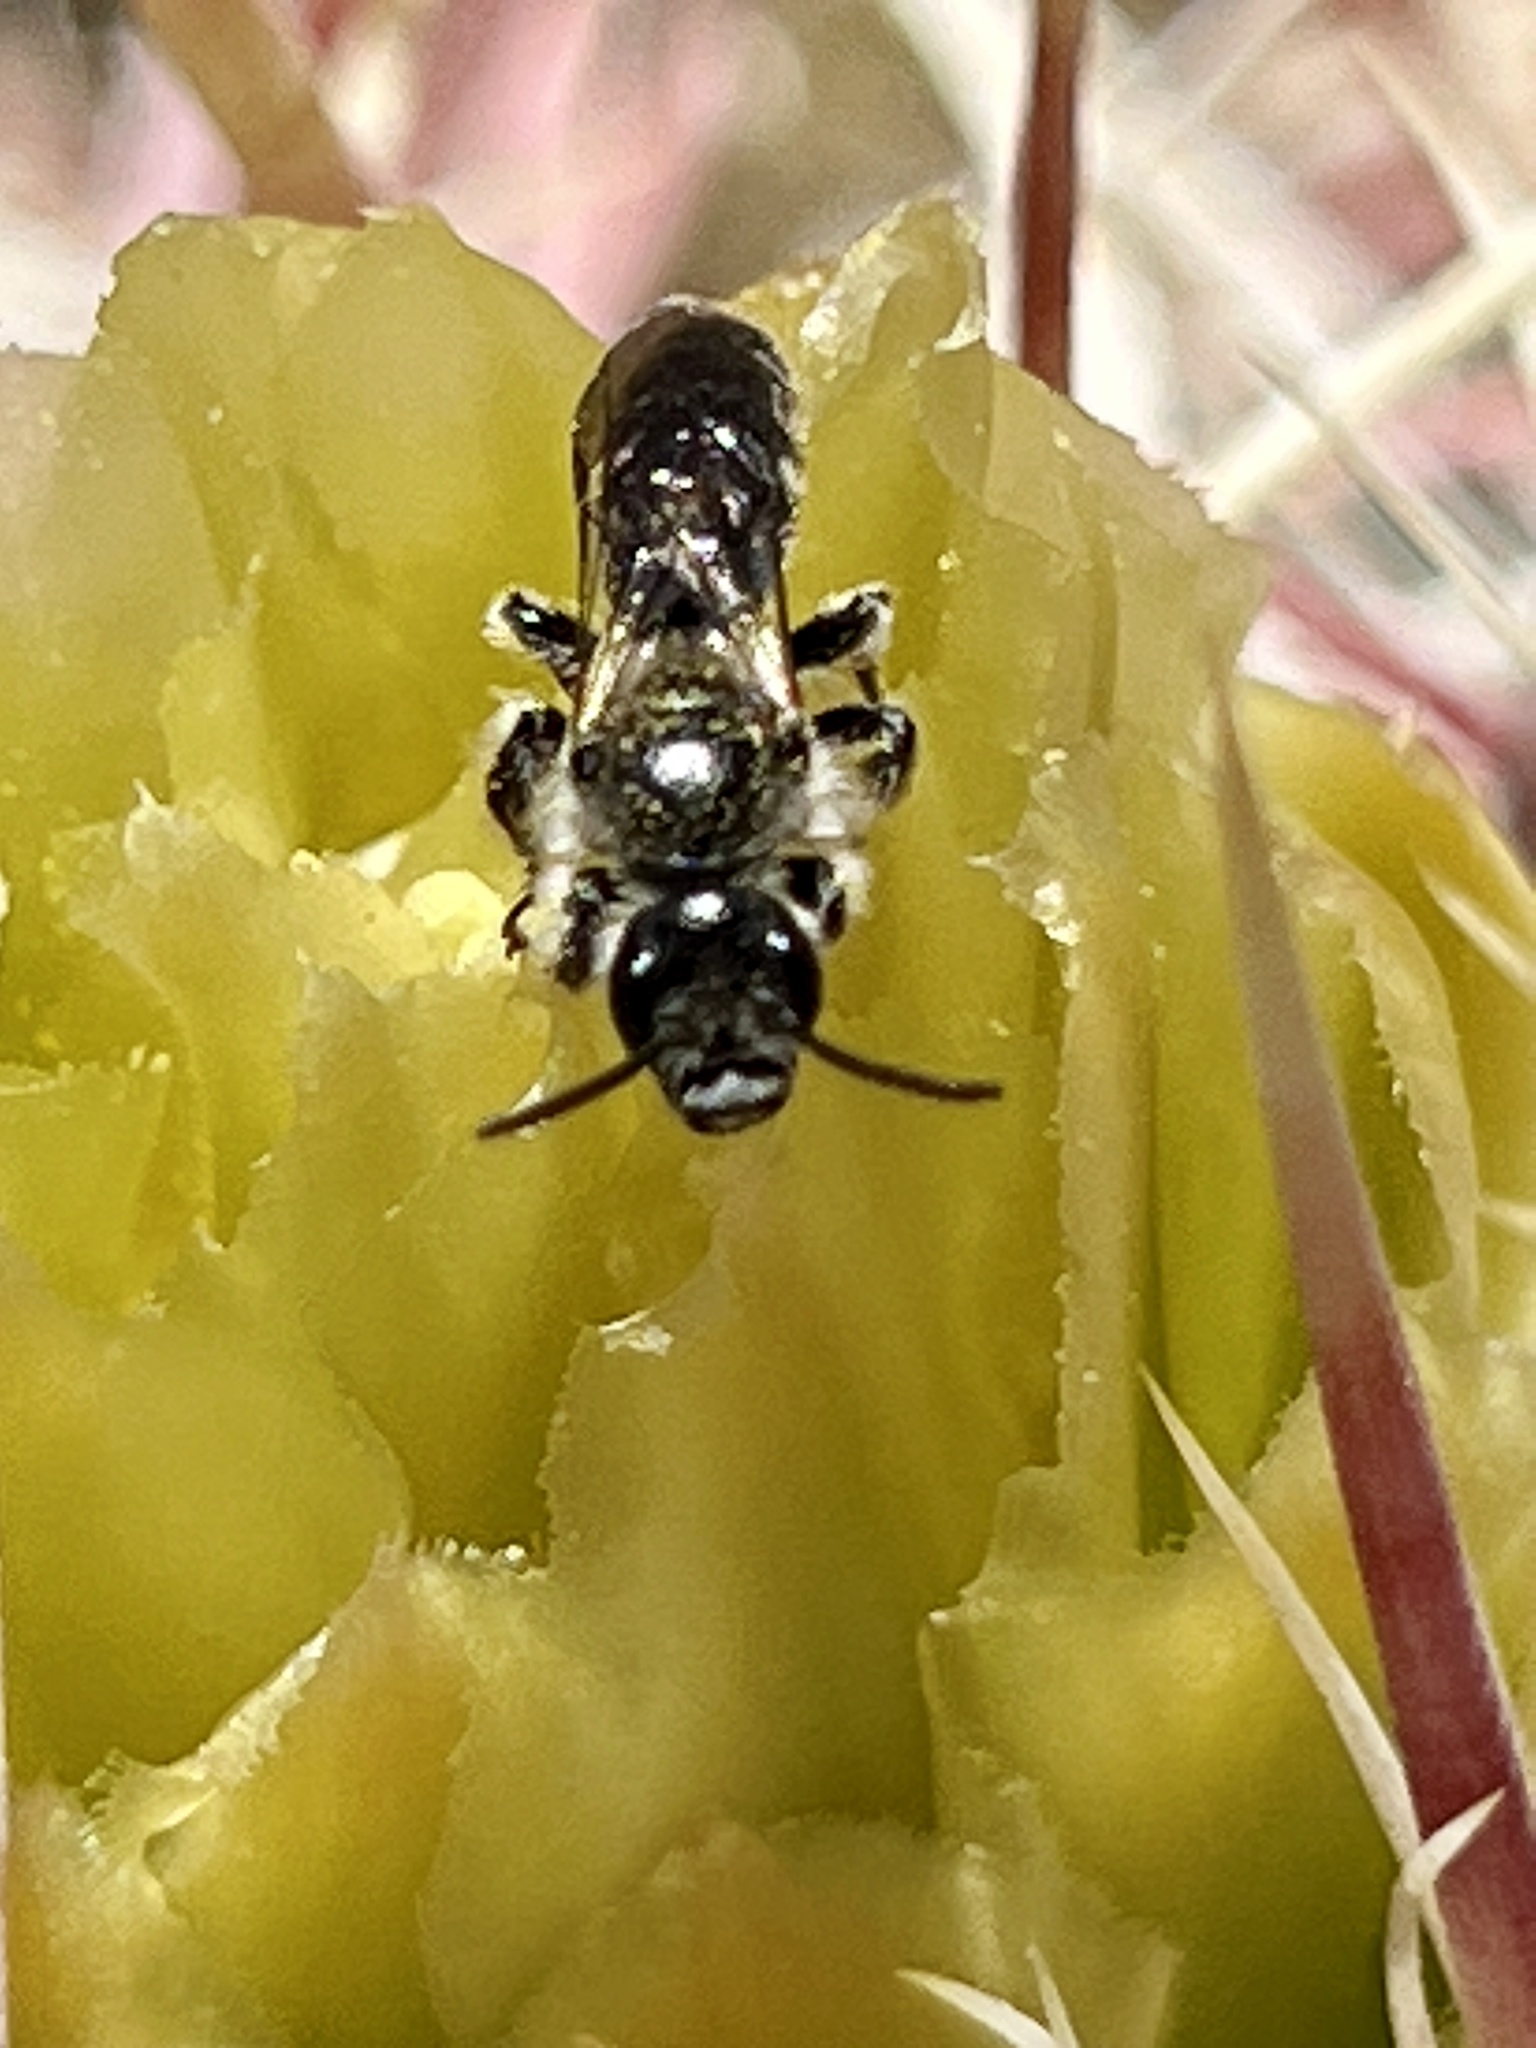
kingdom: Animalia
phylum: Arthropoda
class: Insecta
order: Hymenoptera
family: Halictidae
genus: Dufourea
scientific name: Dufourea echinocacti
